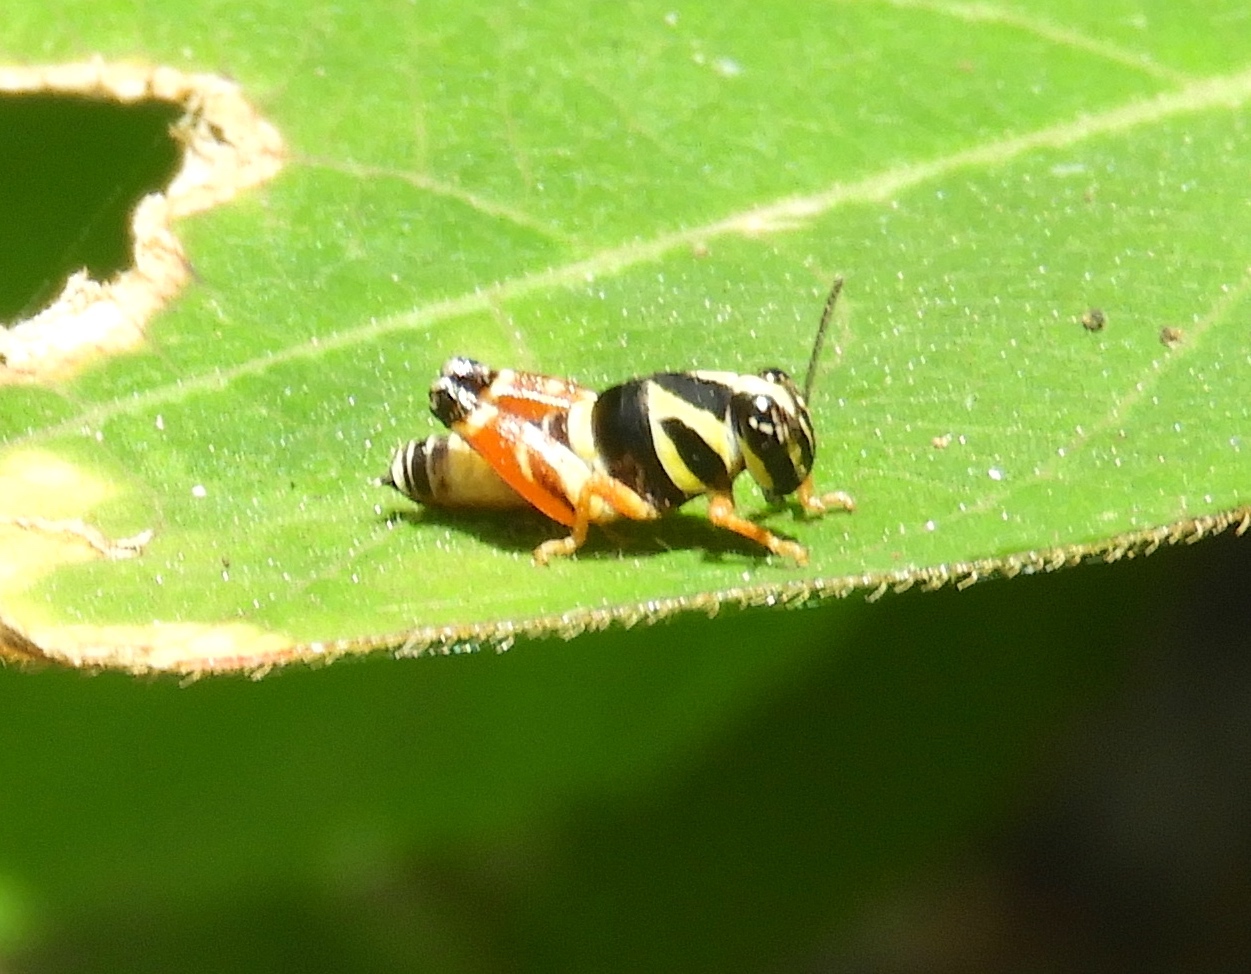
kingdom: Animalia
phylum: Arthropoda
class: Insecta
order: Orthoptera
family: Acrididae
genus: Aidemona
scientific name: Aidemona azteca
